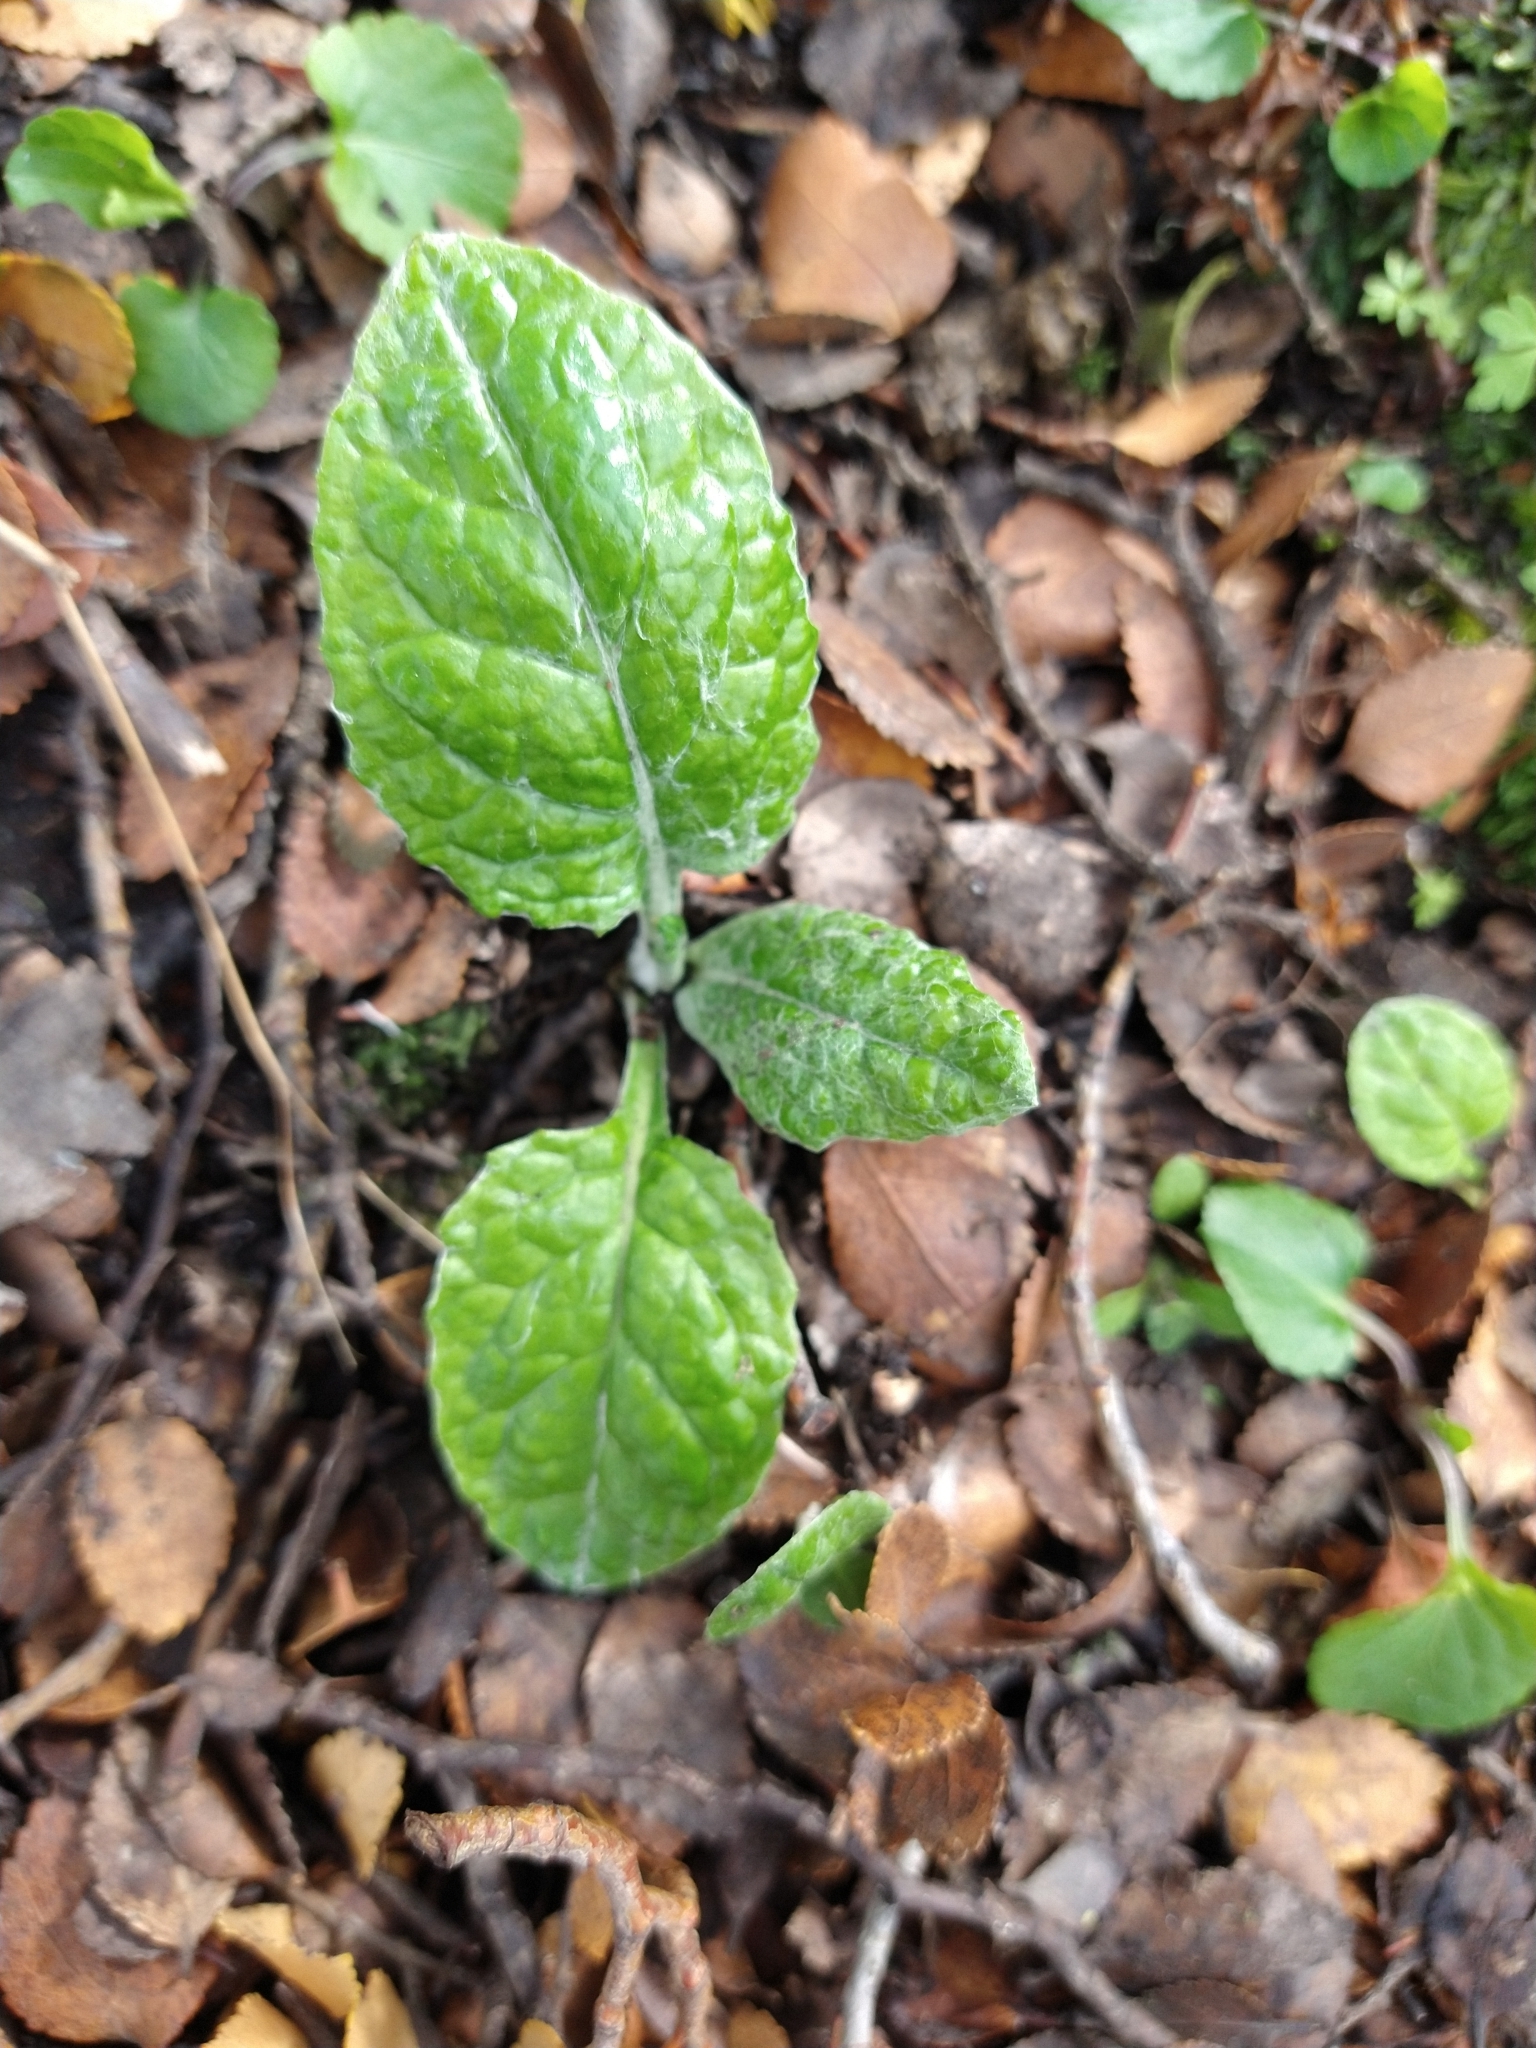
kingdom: Plantae
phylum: Tracheophyta
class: Magnoliopsida
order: Asterales
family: Asteraceae
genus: Adenocaulon
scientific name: Adenocaulon chilense
